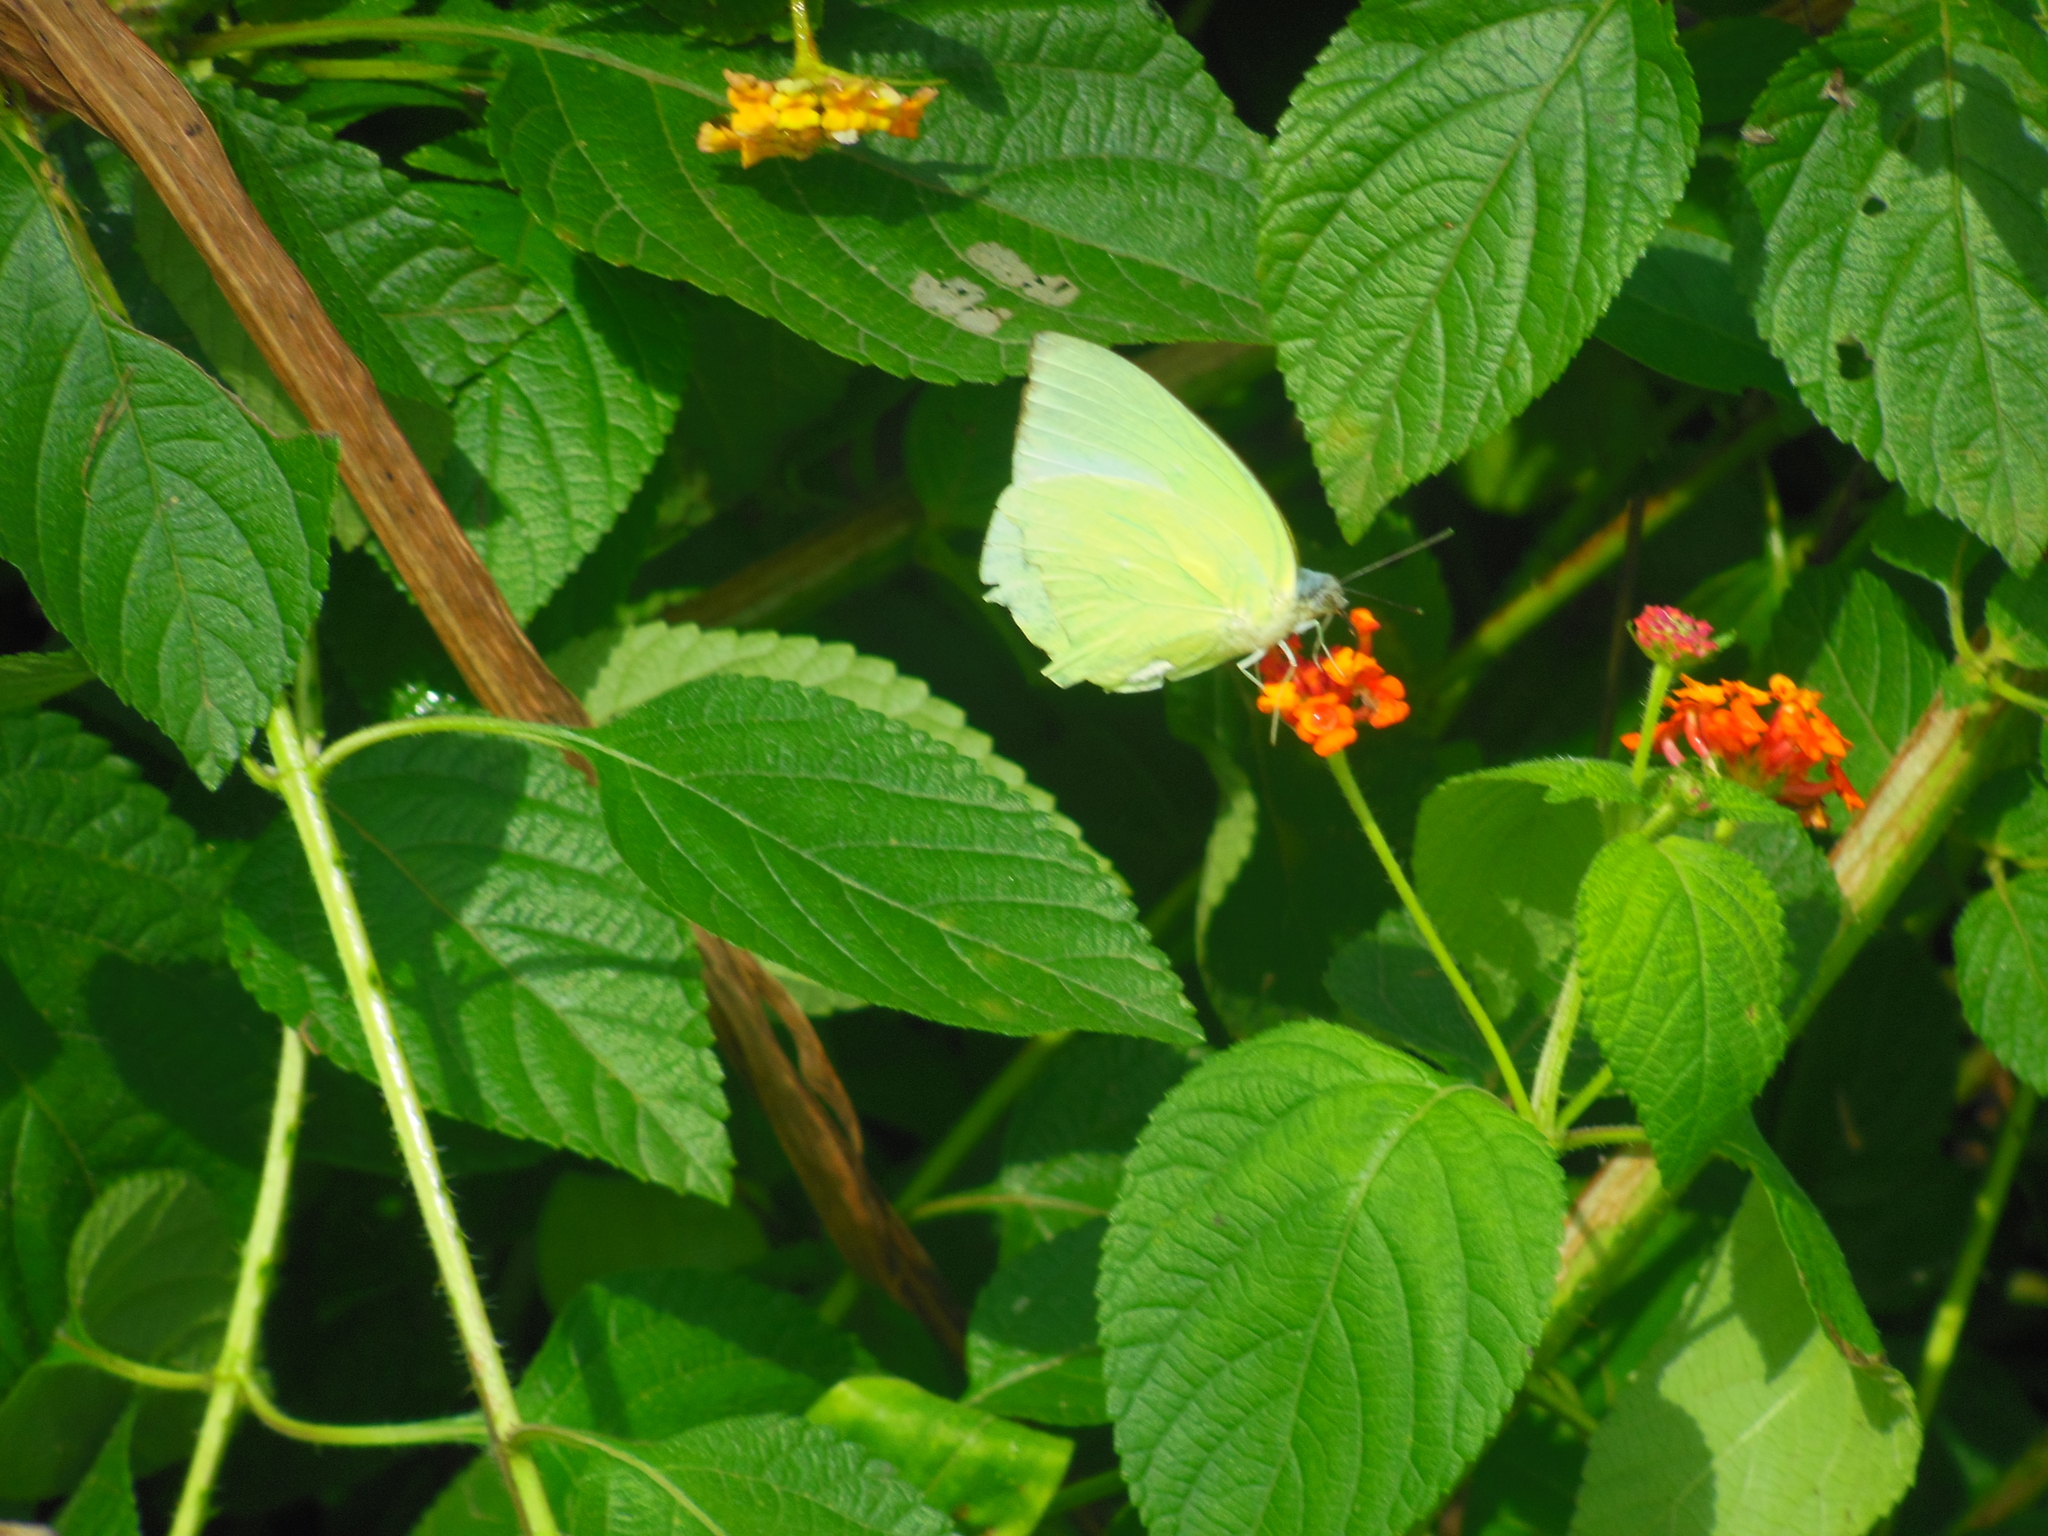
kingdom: Animalia
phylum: Arthropoda
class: Insecta
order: Lepidoptera
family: Pieridae
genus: Catopsilia
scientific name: Catopsilia pomona
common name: Common emigrant
